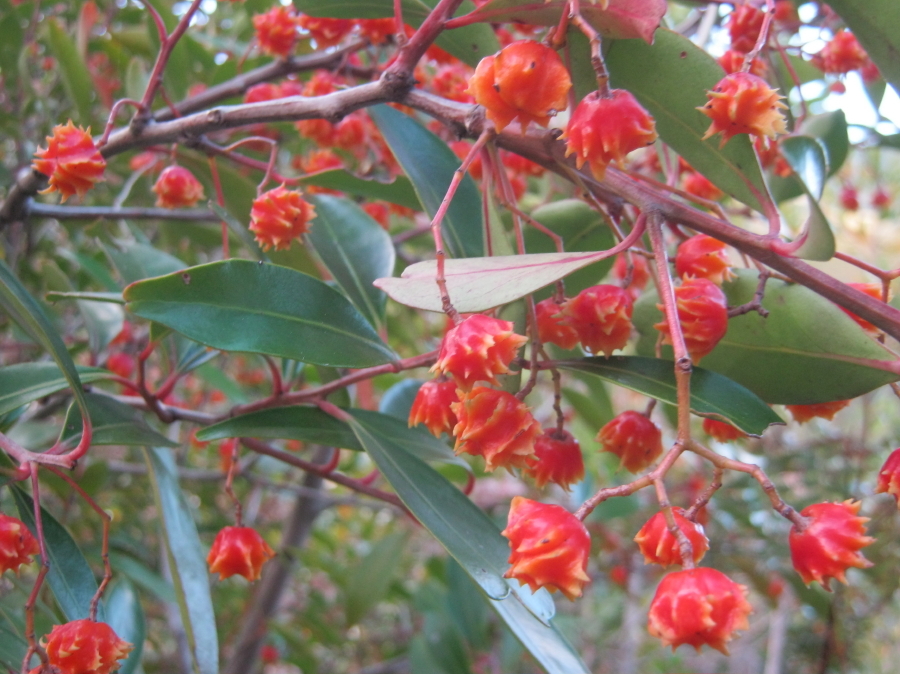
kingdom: Plantae
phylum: Tracheophyta
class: Magnoliopsida
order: Celastrales
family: Celastraceae
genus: Pterocelastrus
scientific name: Pterocelastrus rostratus
